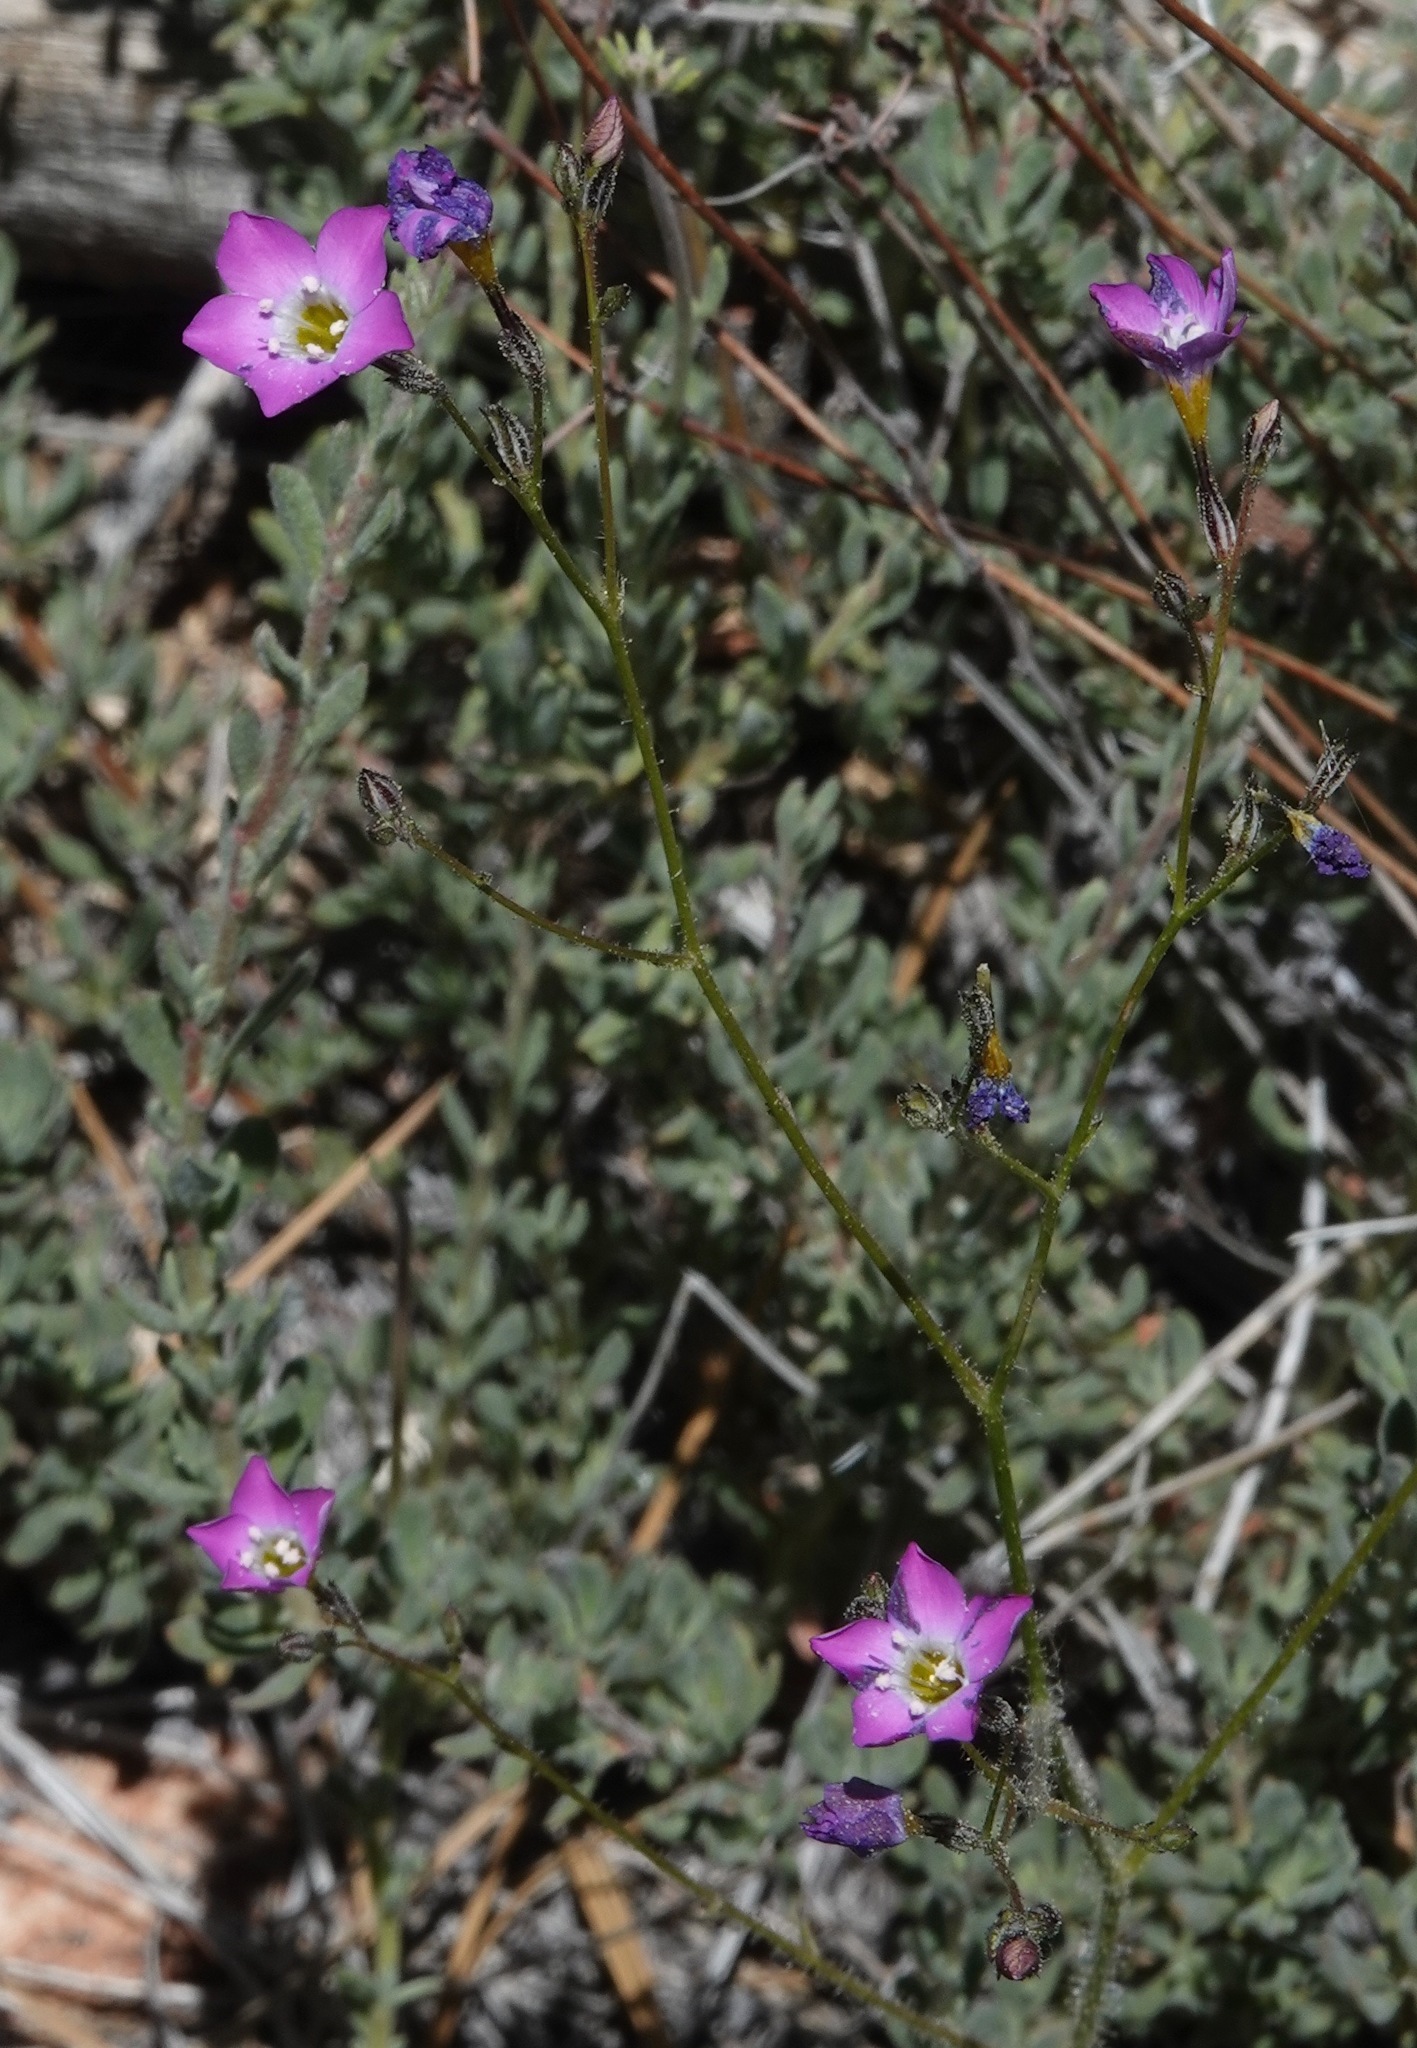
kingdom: Plantae
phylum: Tracheophyta
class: Magnoliopsida
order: Ericales
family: Polemoniaceae
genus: Gilia
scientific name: Gilia cana
